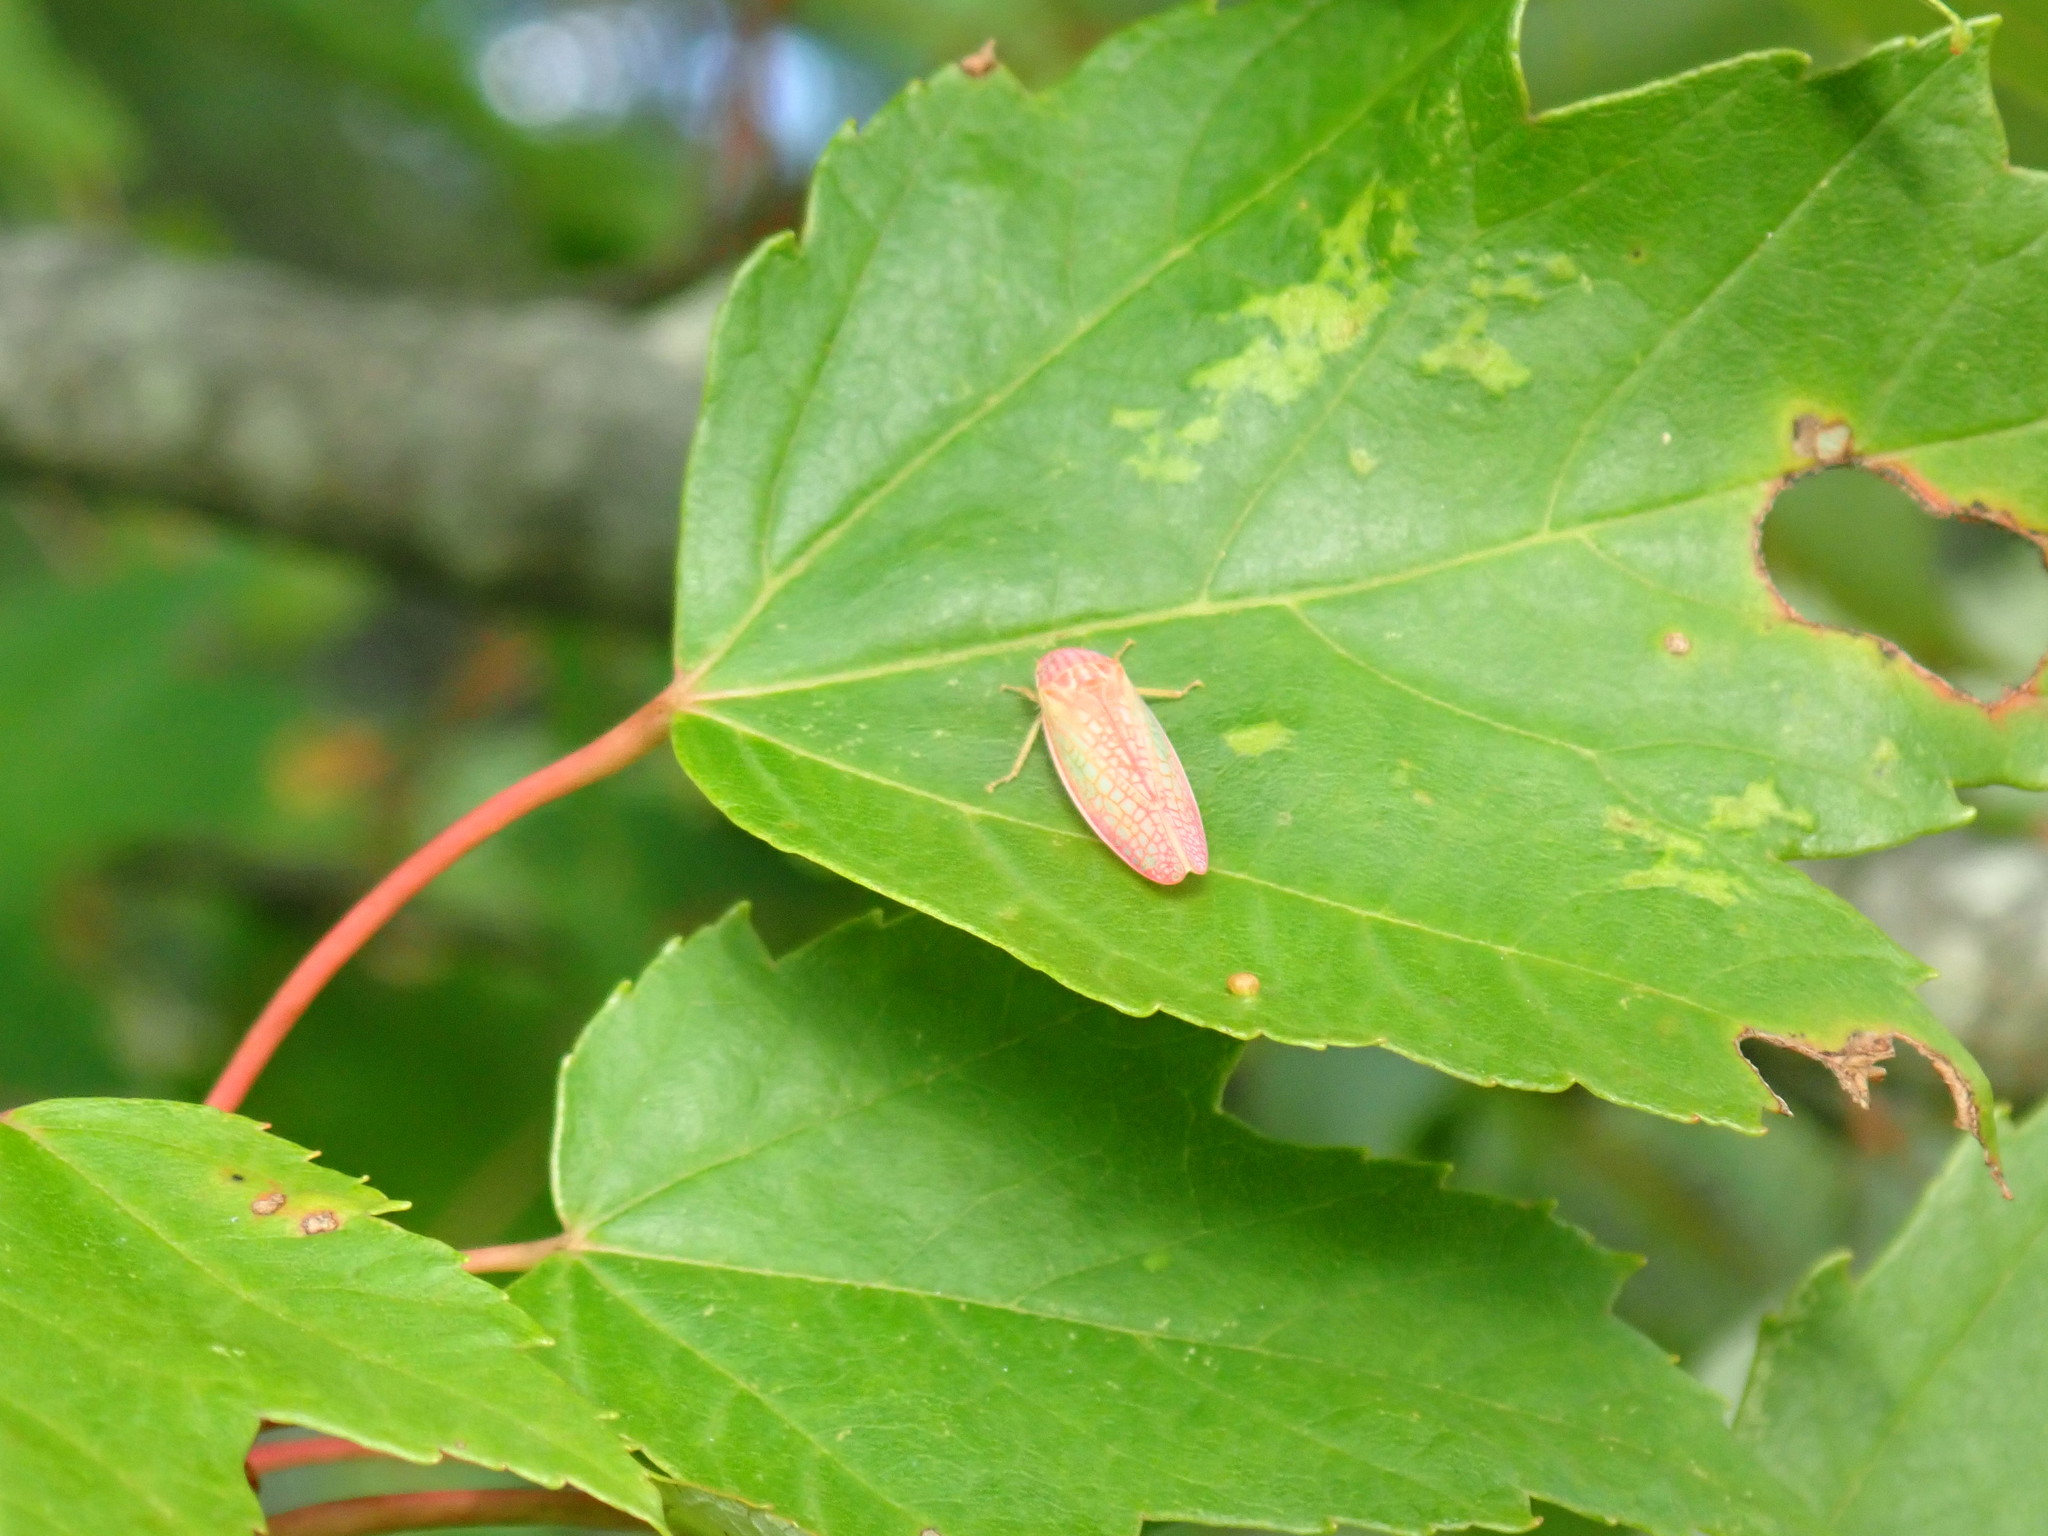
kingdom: Animalia
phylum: Arthropoda
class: Insecta
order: Hemiptera
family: Cicadellidae
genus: Gyponana
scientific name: Gyponana gladia
